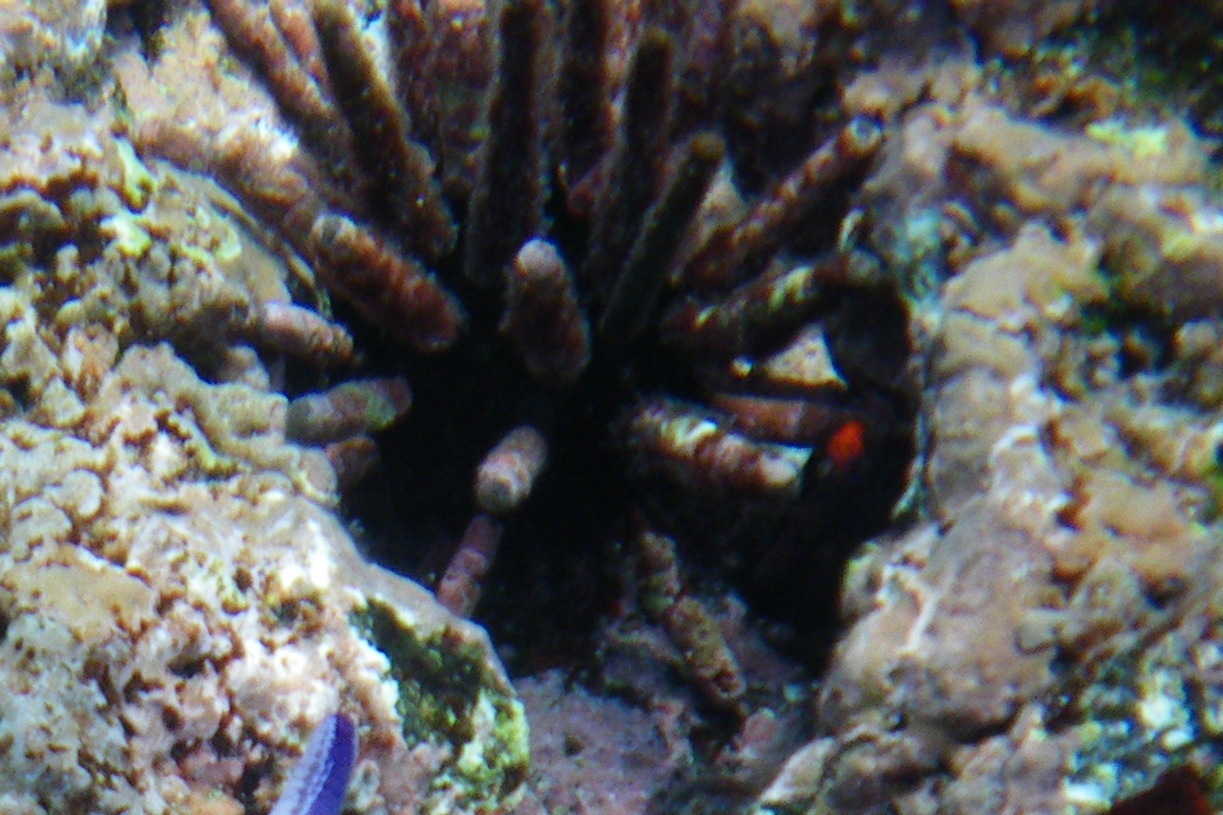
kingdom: Animalia
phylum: Echinodermata
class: Echinoidea
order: Cidaroida
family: Cidaridae
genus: Eucidaris
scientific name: Eucidaris galapagensis
